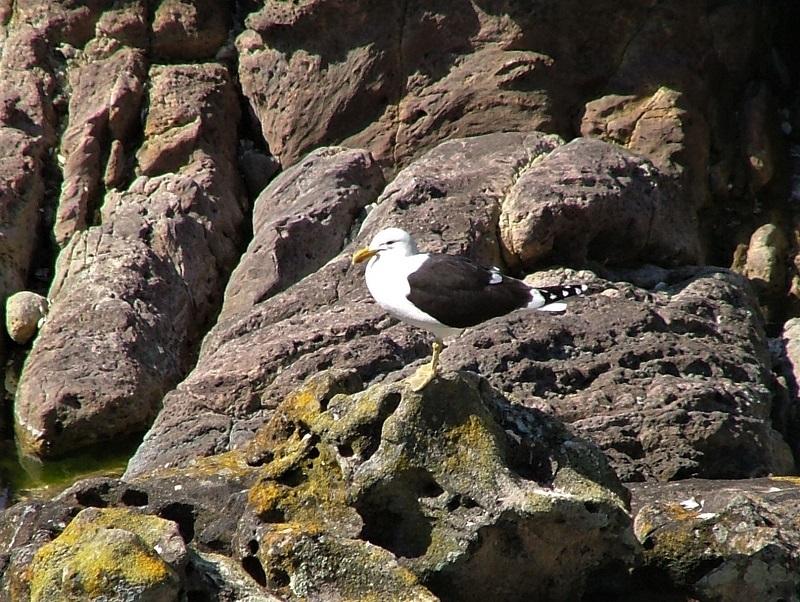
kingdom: Animalia
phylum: Chordata
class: Aves
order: Charadriiformes
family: Laridae
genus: Larus
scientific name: Larus dominicanus
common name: Kelp gull
